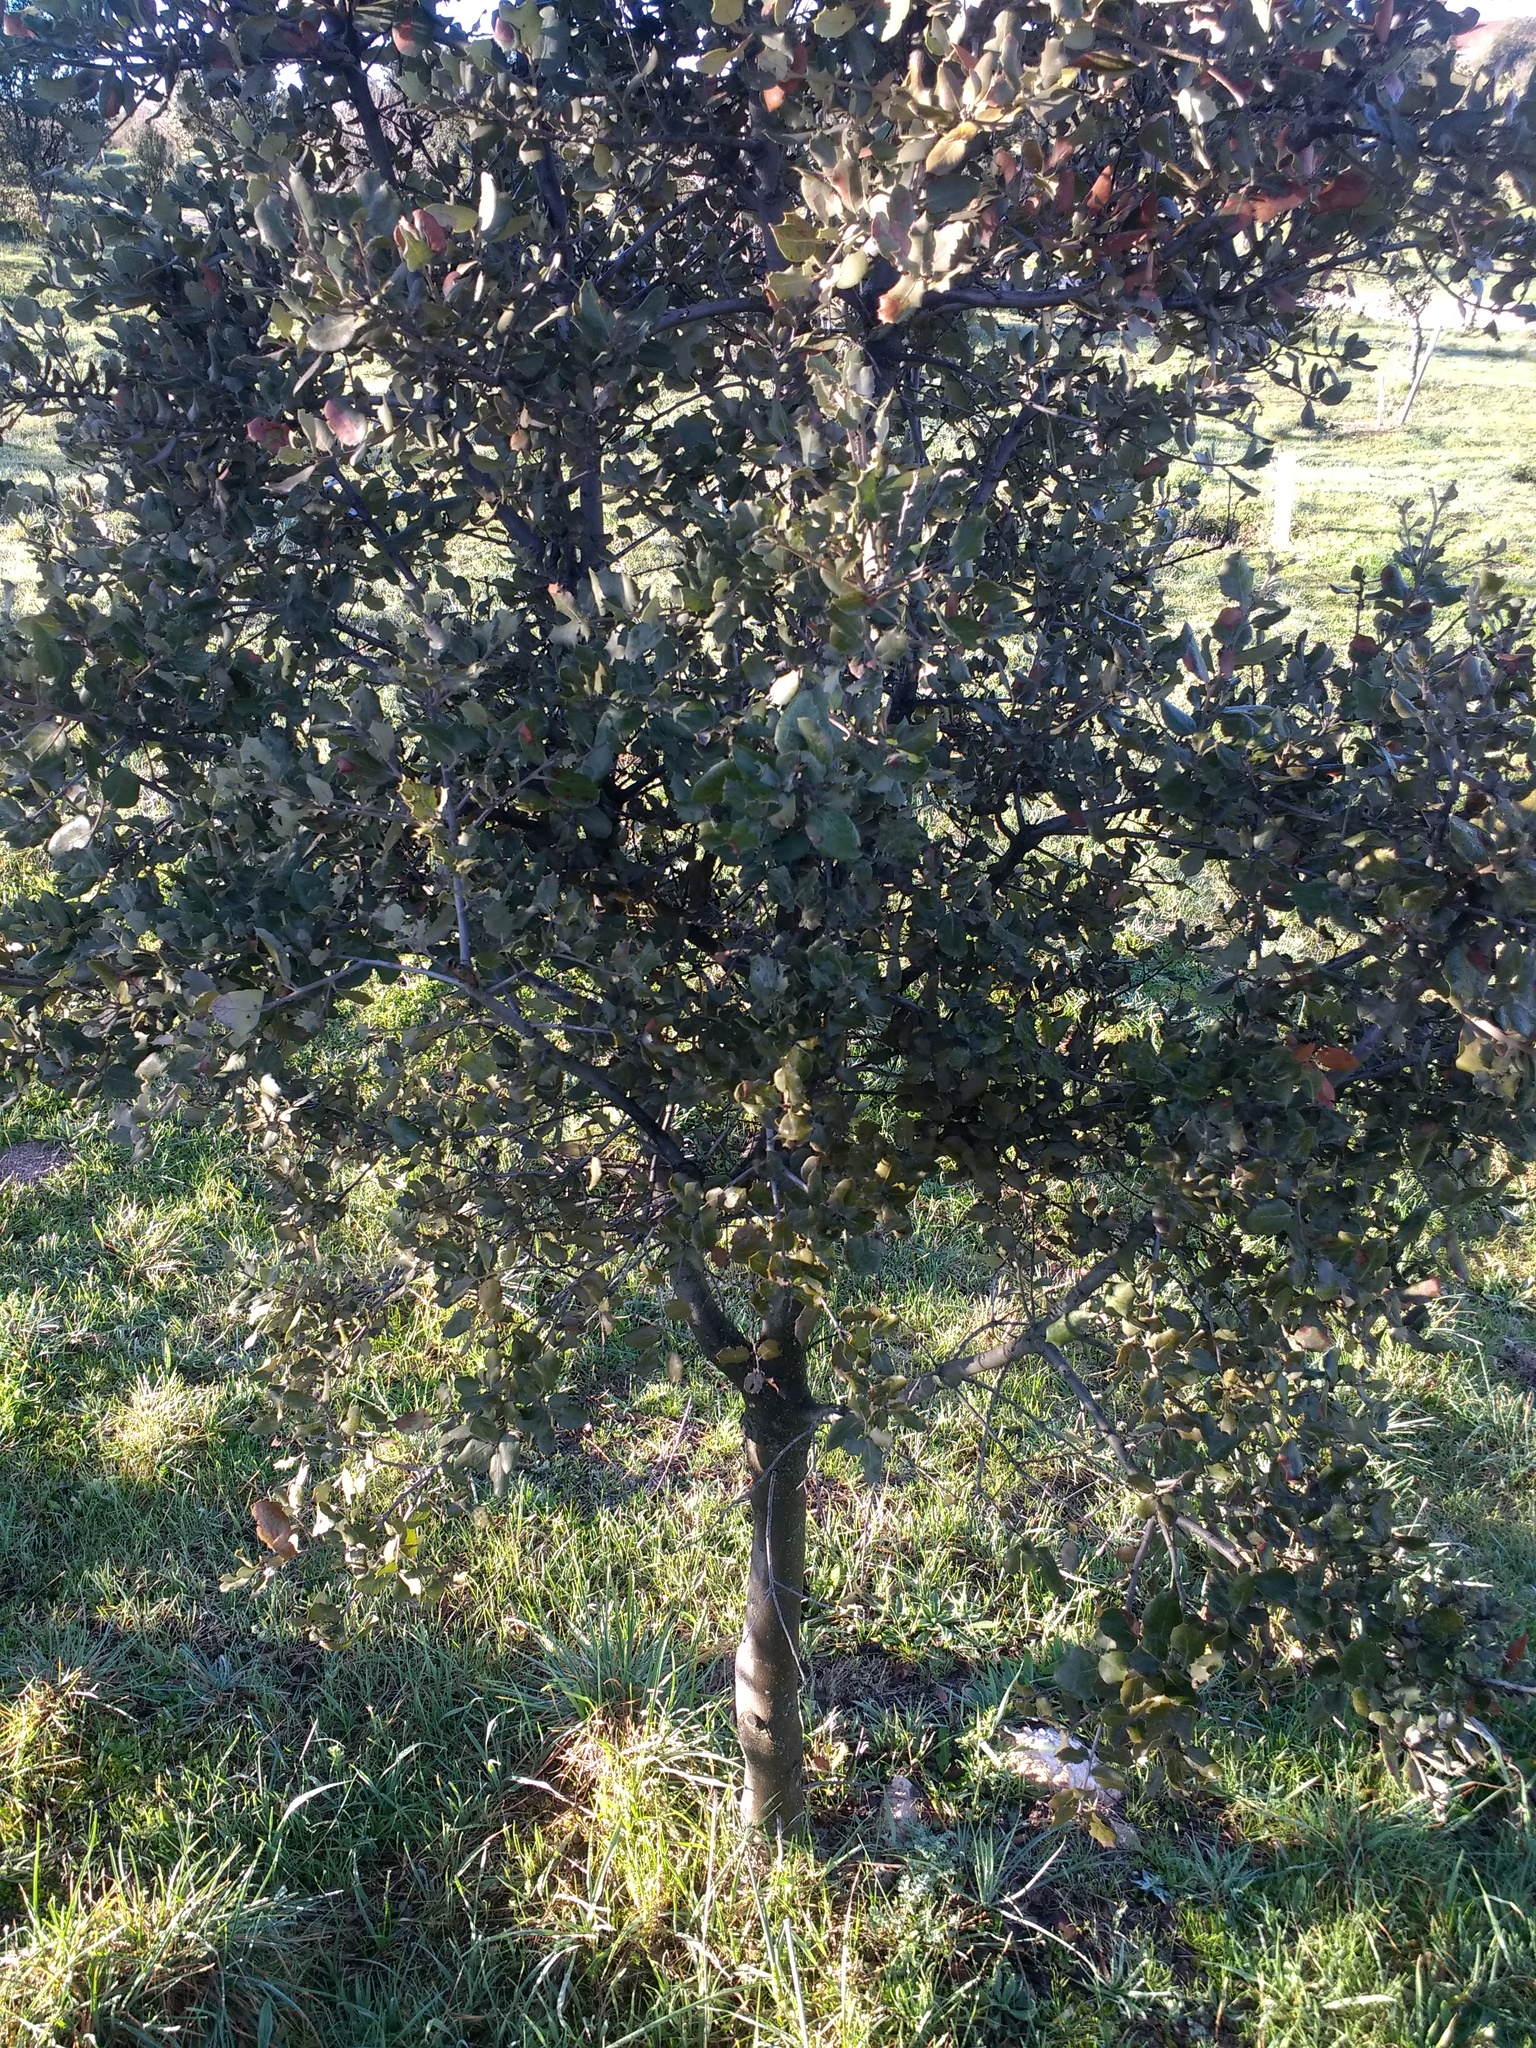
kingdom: Plantae
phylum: Tracheophyta
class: Magnoliopsida
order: Fagales
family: Fagaceae
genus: Quercus
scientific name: Quercus rotundifolia
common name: Holm oak
